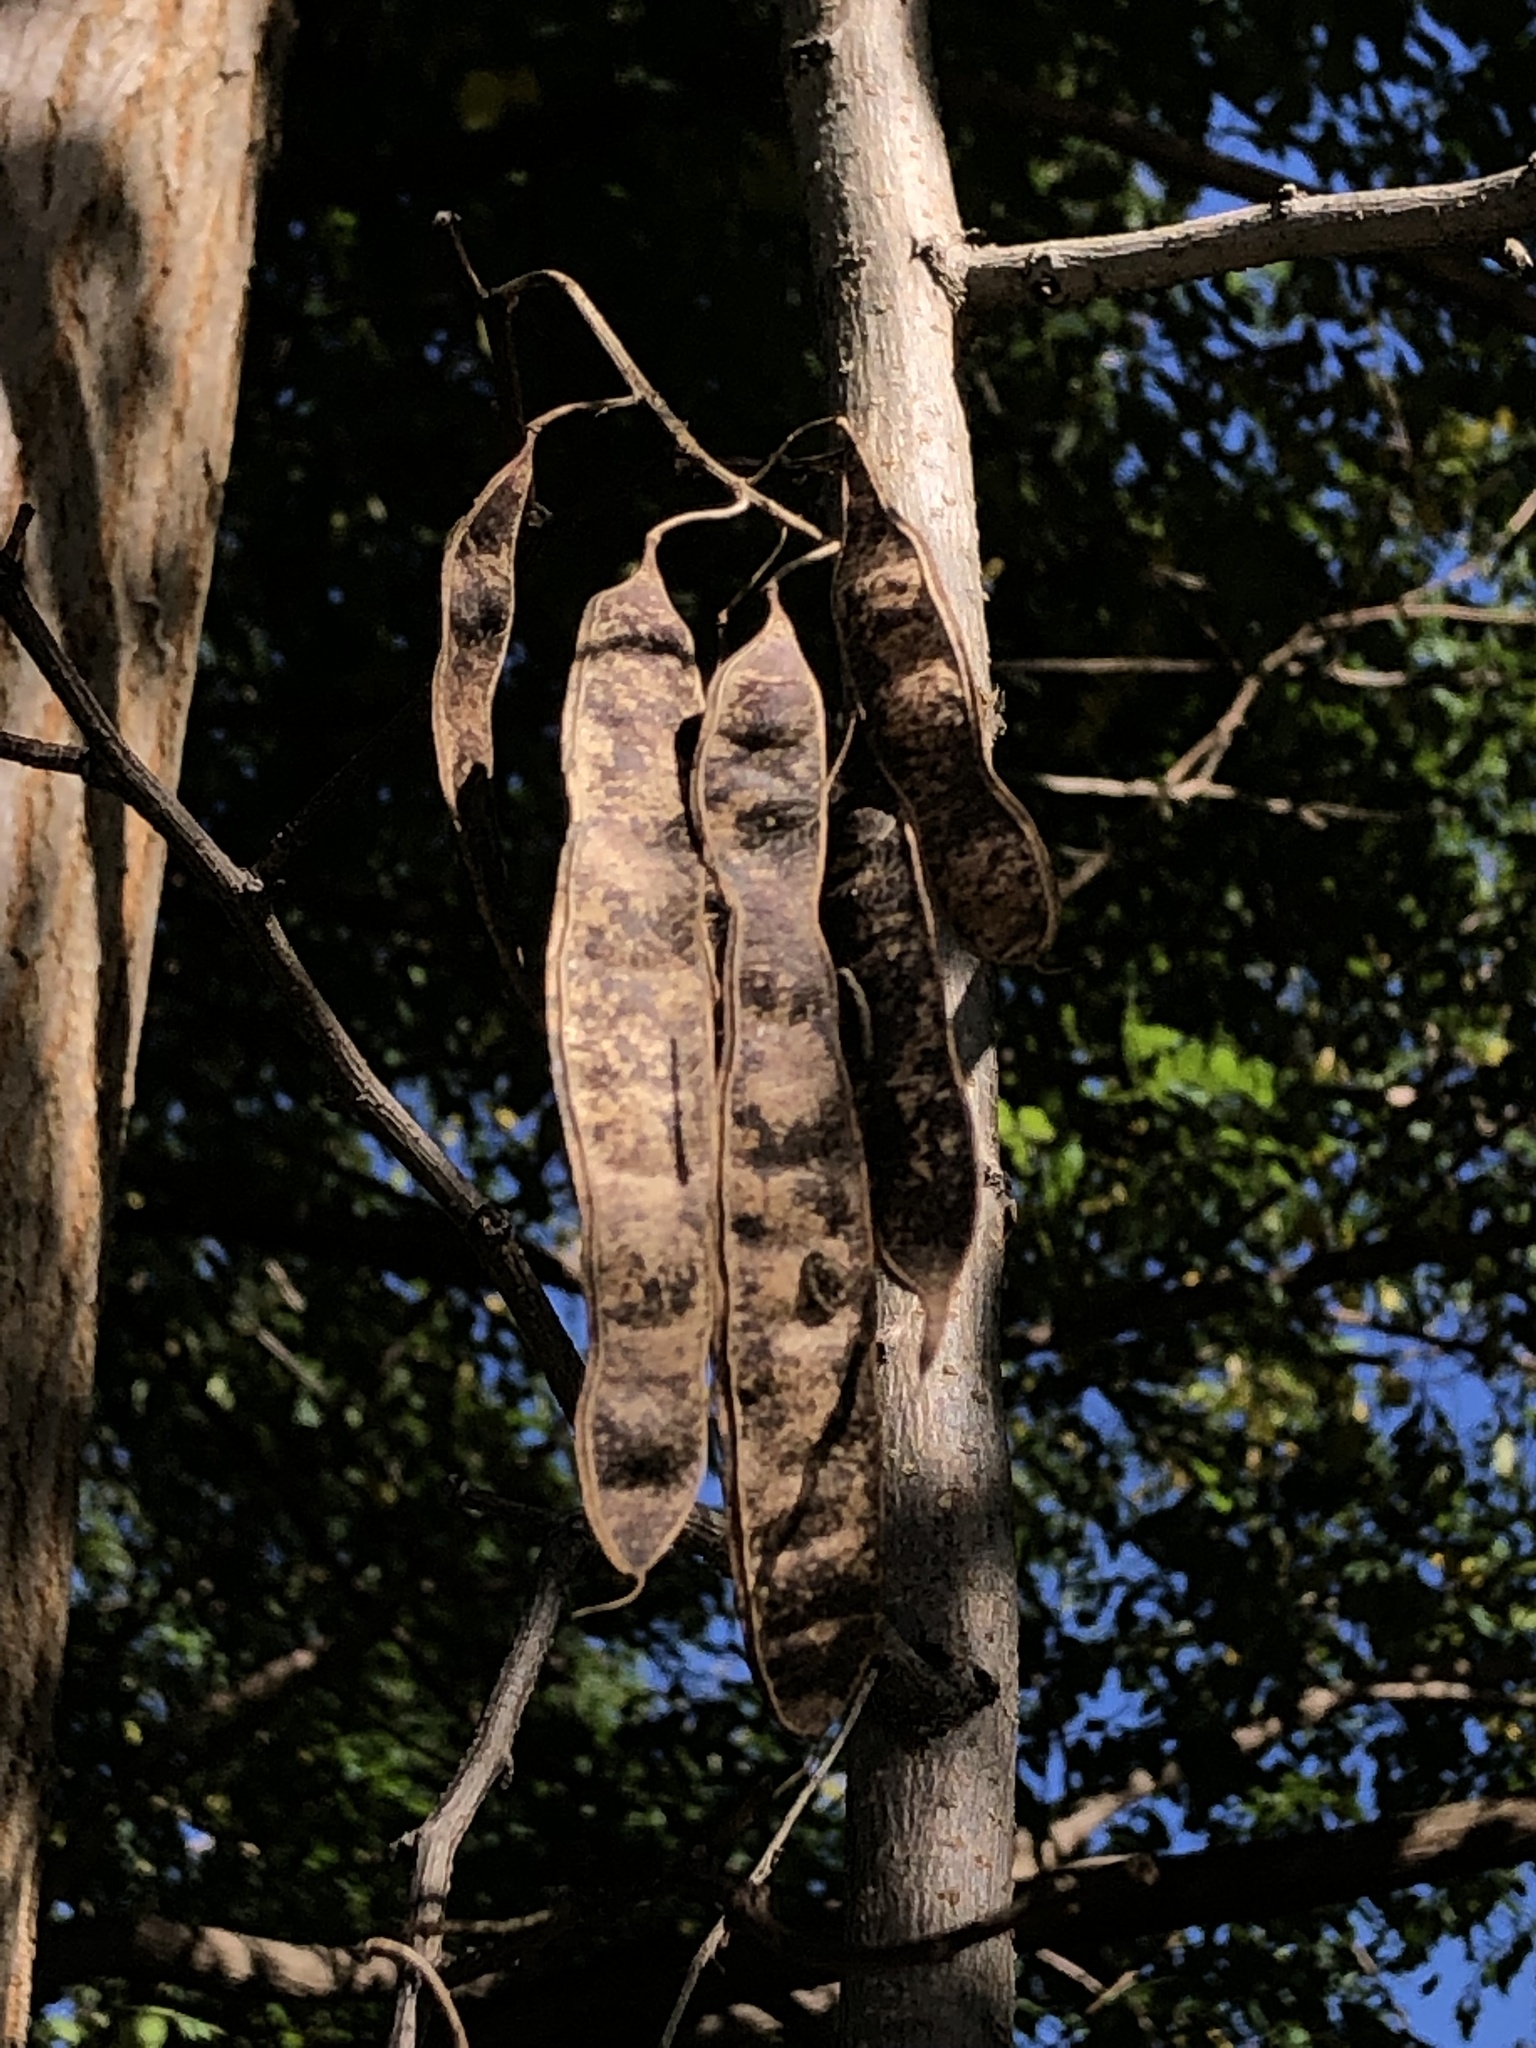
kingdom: Plantae
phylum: Tracheophyta
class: Magnoliopsida
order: Fabales
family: Fabaceae
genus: Robinia
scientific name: Robinia pseudoacacia
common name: Black locust
